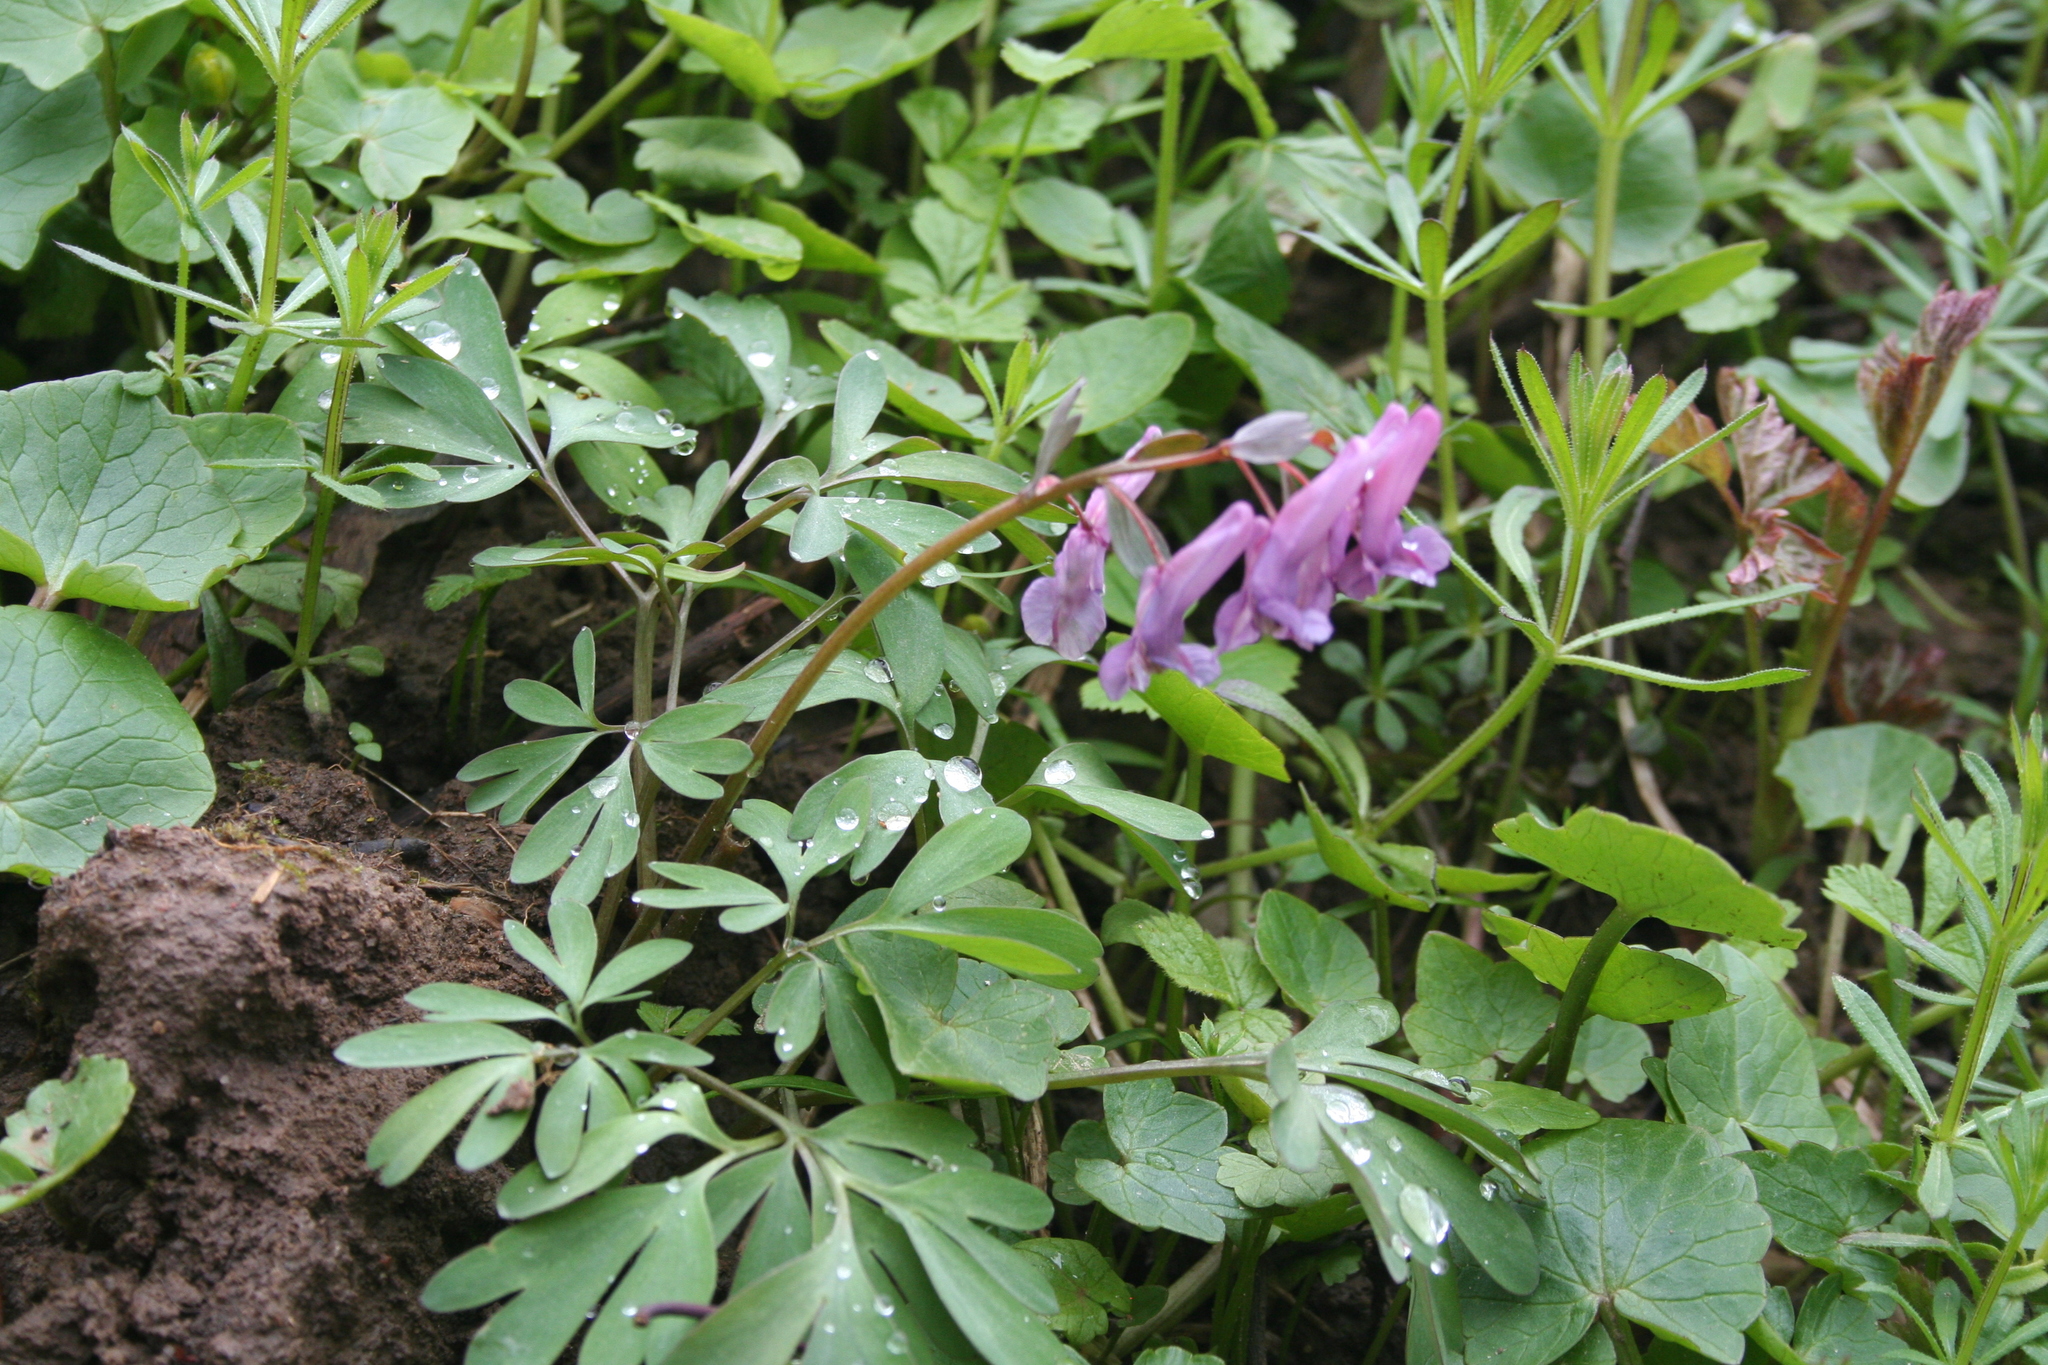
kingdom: Plantae
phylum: Tracheophyta
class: Magnoliopsida
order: Ranunculales
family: Papaveraceae
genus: Corydalis
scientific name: Corydalis solida
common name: Bird-in-a-bush
